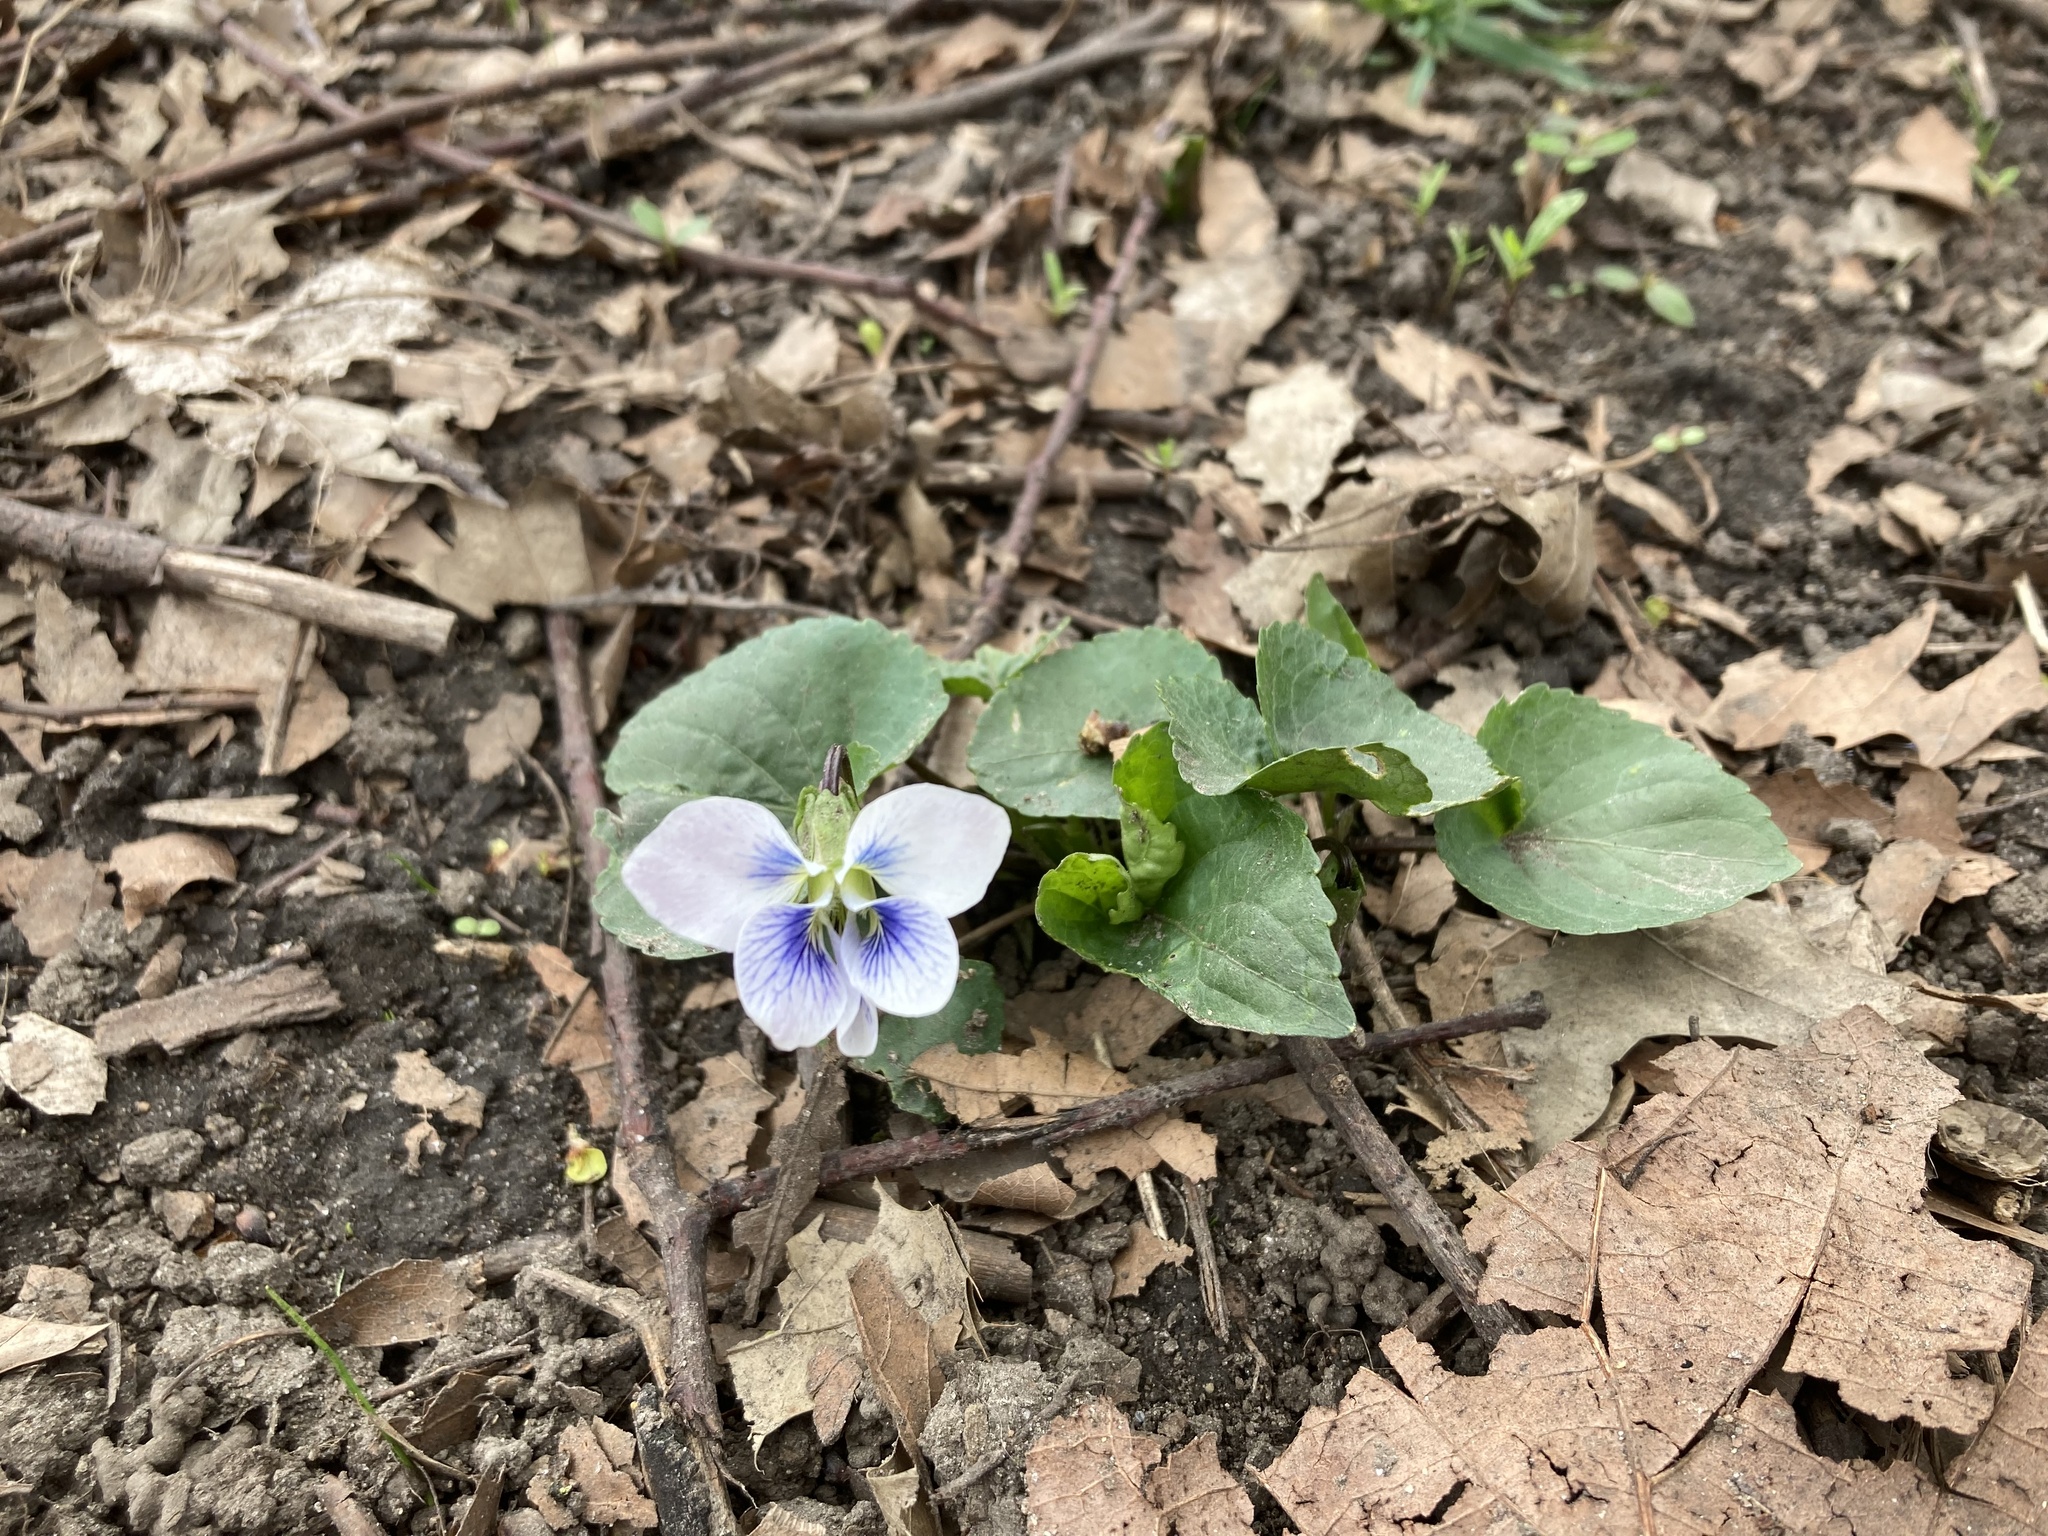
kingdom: Plantae
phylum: Tracheophyta
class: Magnoliopsida
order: Malpighiales
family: Violaceae
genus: Viola
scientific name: Viola sororia
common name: Dooryard violet
